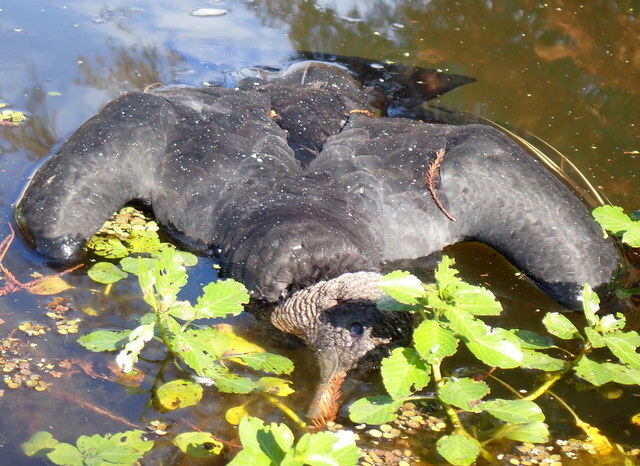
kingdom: Animalia
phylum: Chordata
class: Aves
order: Accipitriformes
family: Cathartidae
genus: Coragyps
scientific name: Coragyps atratus
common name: Black vulture
